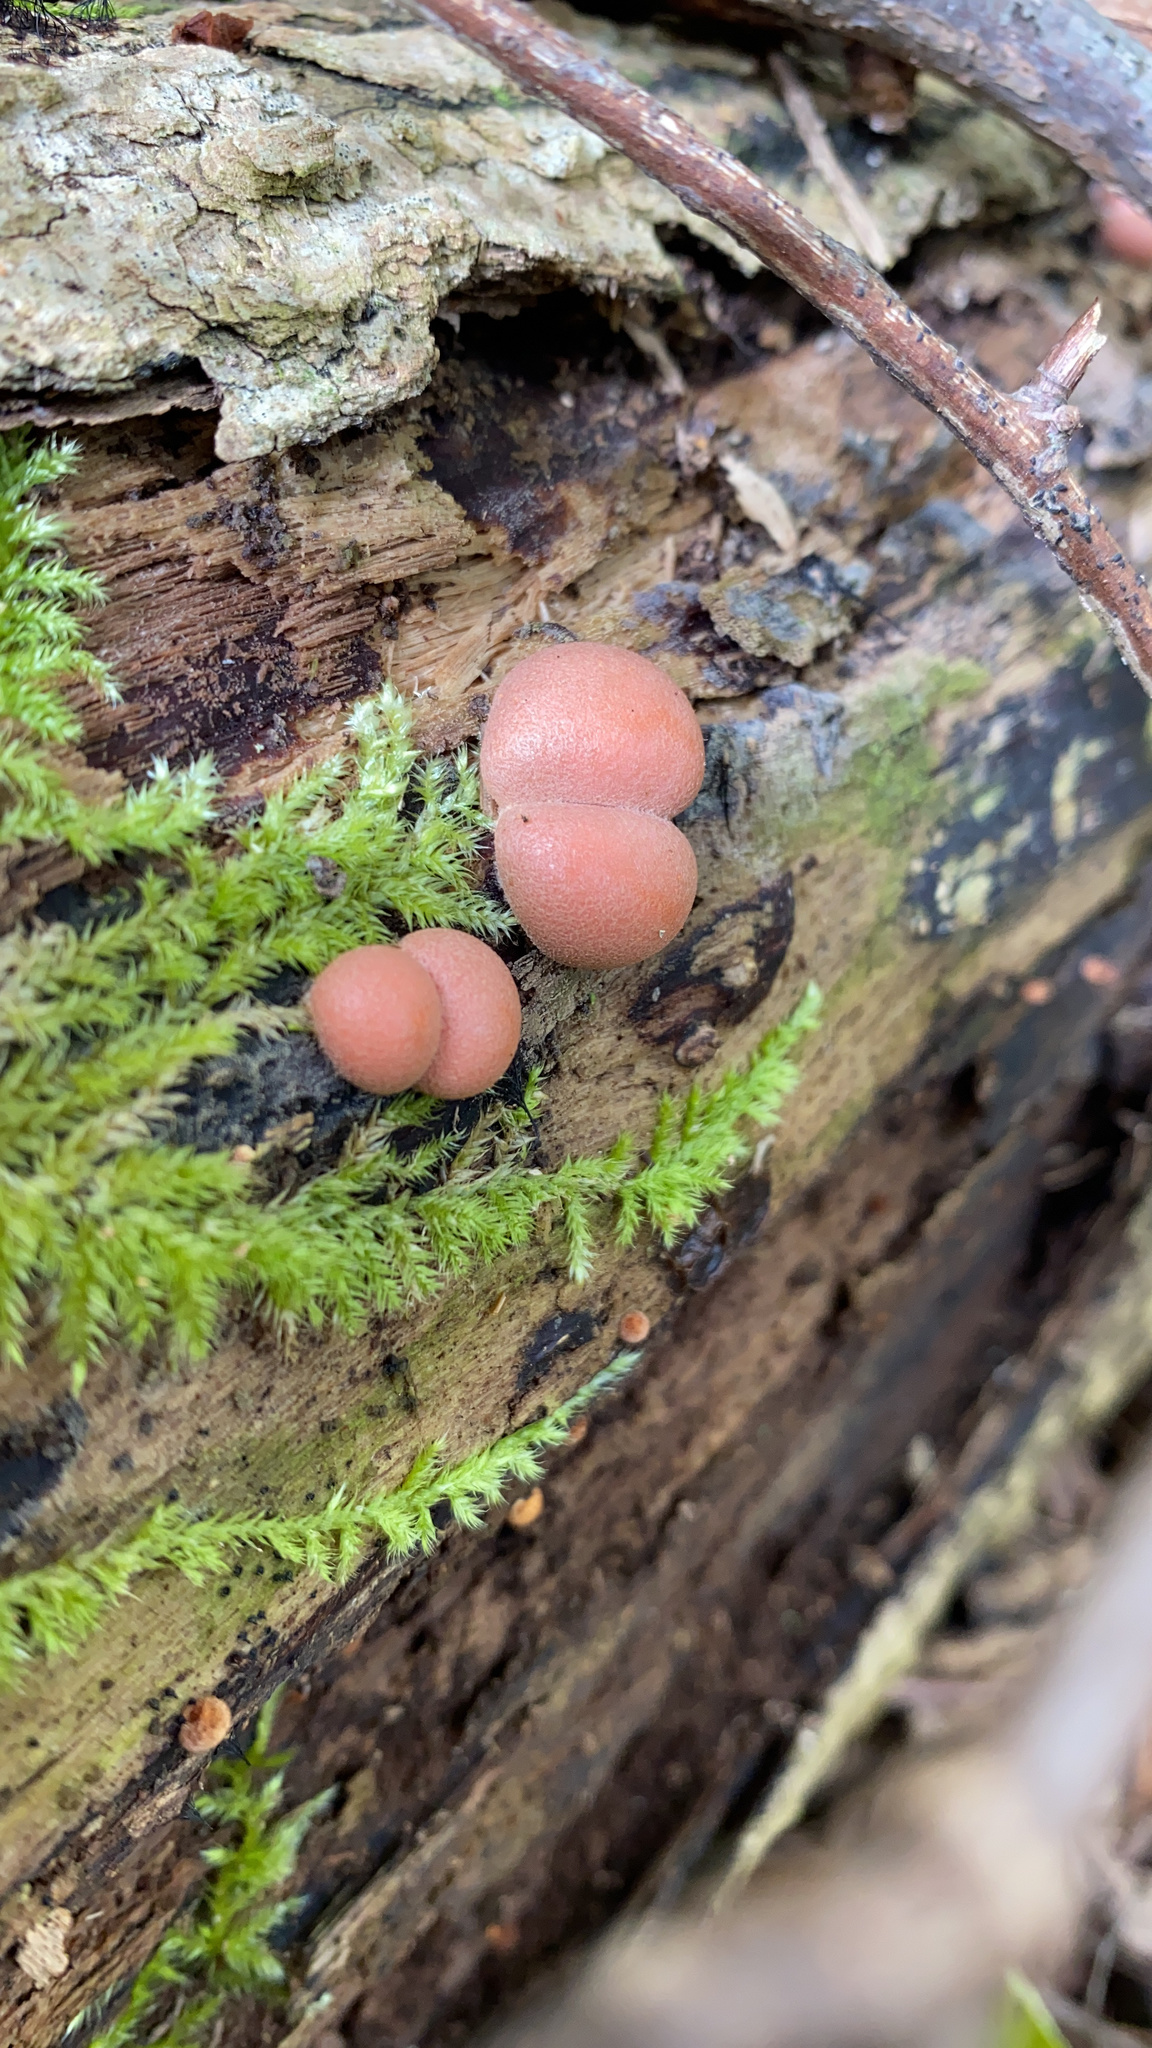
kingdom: Protozoa
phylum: Mycetozoa
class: Myxomycetes
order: Cribrariales
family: Tubiferaceae
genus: Lycogala
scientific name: Lycogala epidendrum
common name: Wolf's milk
